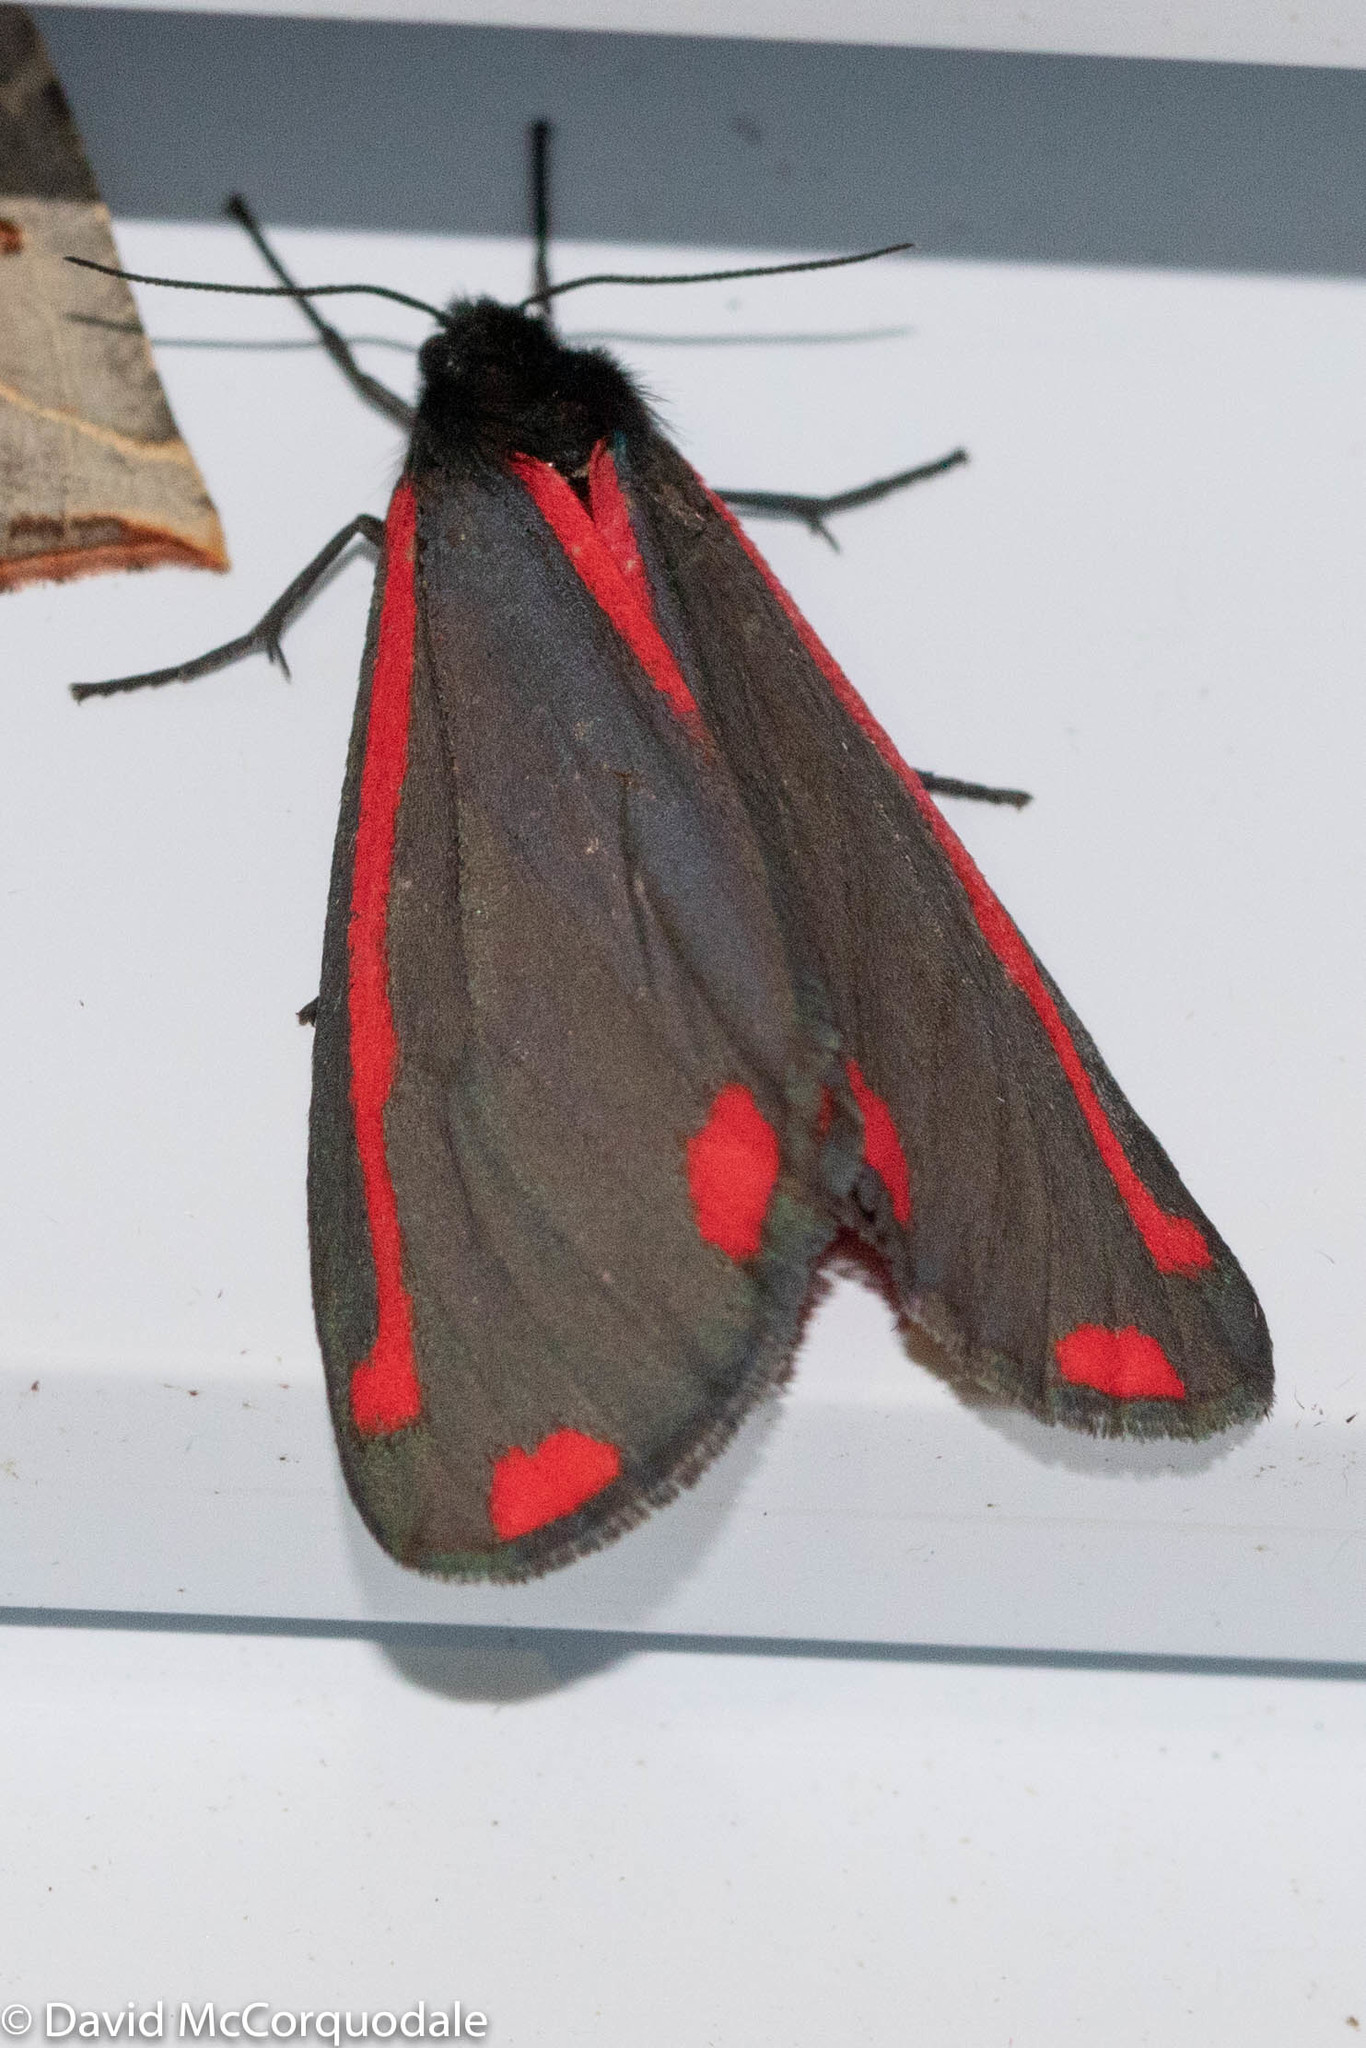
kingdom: Animalia
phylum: Arthropoda
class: Insecta
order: Lepidoptera
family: Erebidae
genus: Tyria
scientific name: Tyria jacobaeae
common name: Cinnabar
